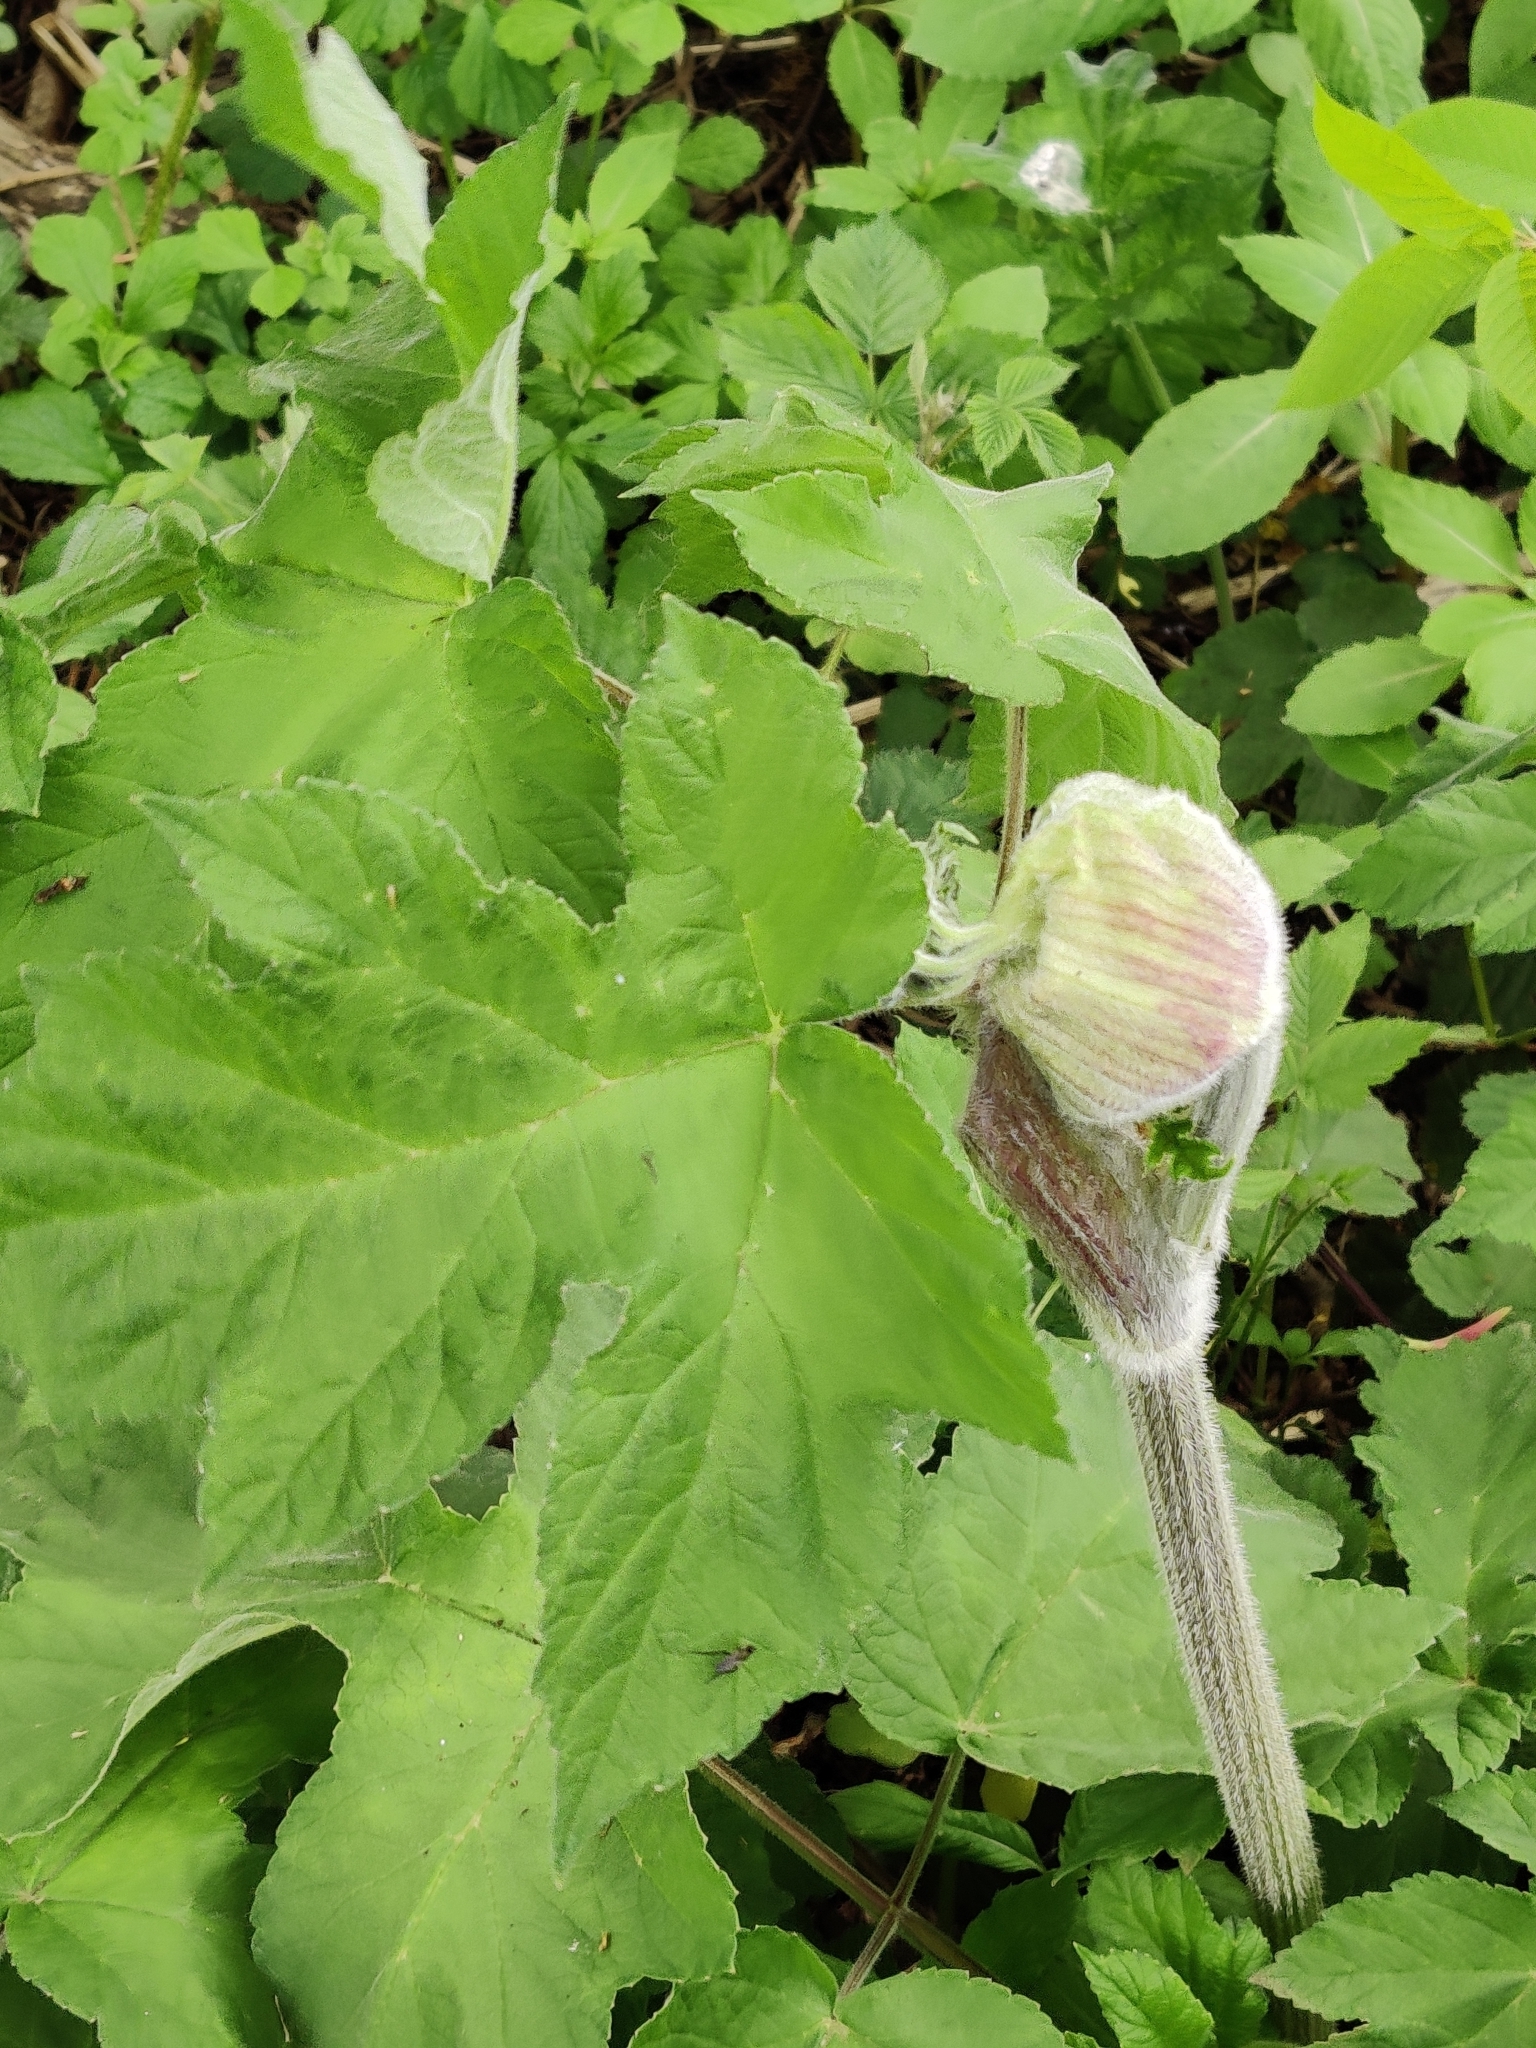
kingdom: Plantae
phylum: Tracheophyta
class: Magnoliopsida
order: Apiales
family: Apiaceae
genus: Heracleum
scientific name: Heracleum sphondylium
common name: Hogweed
